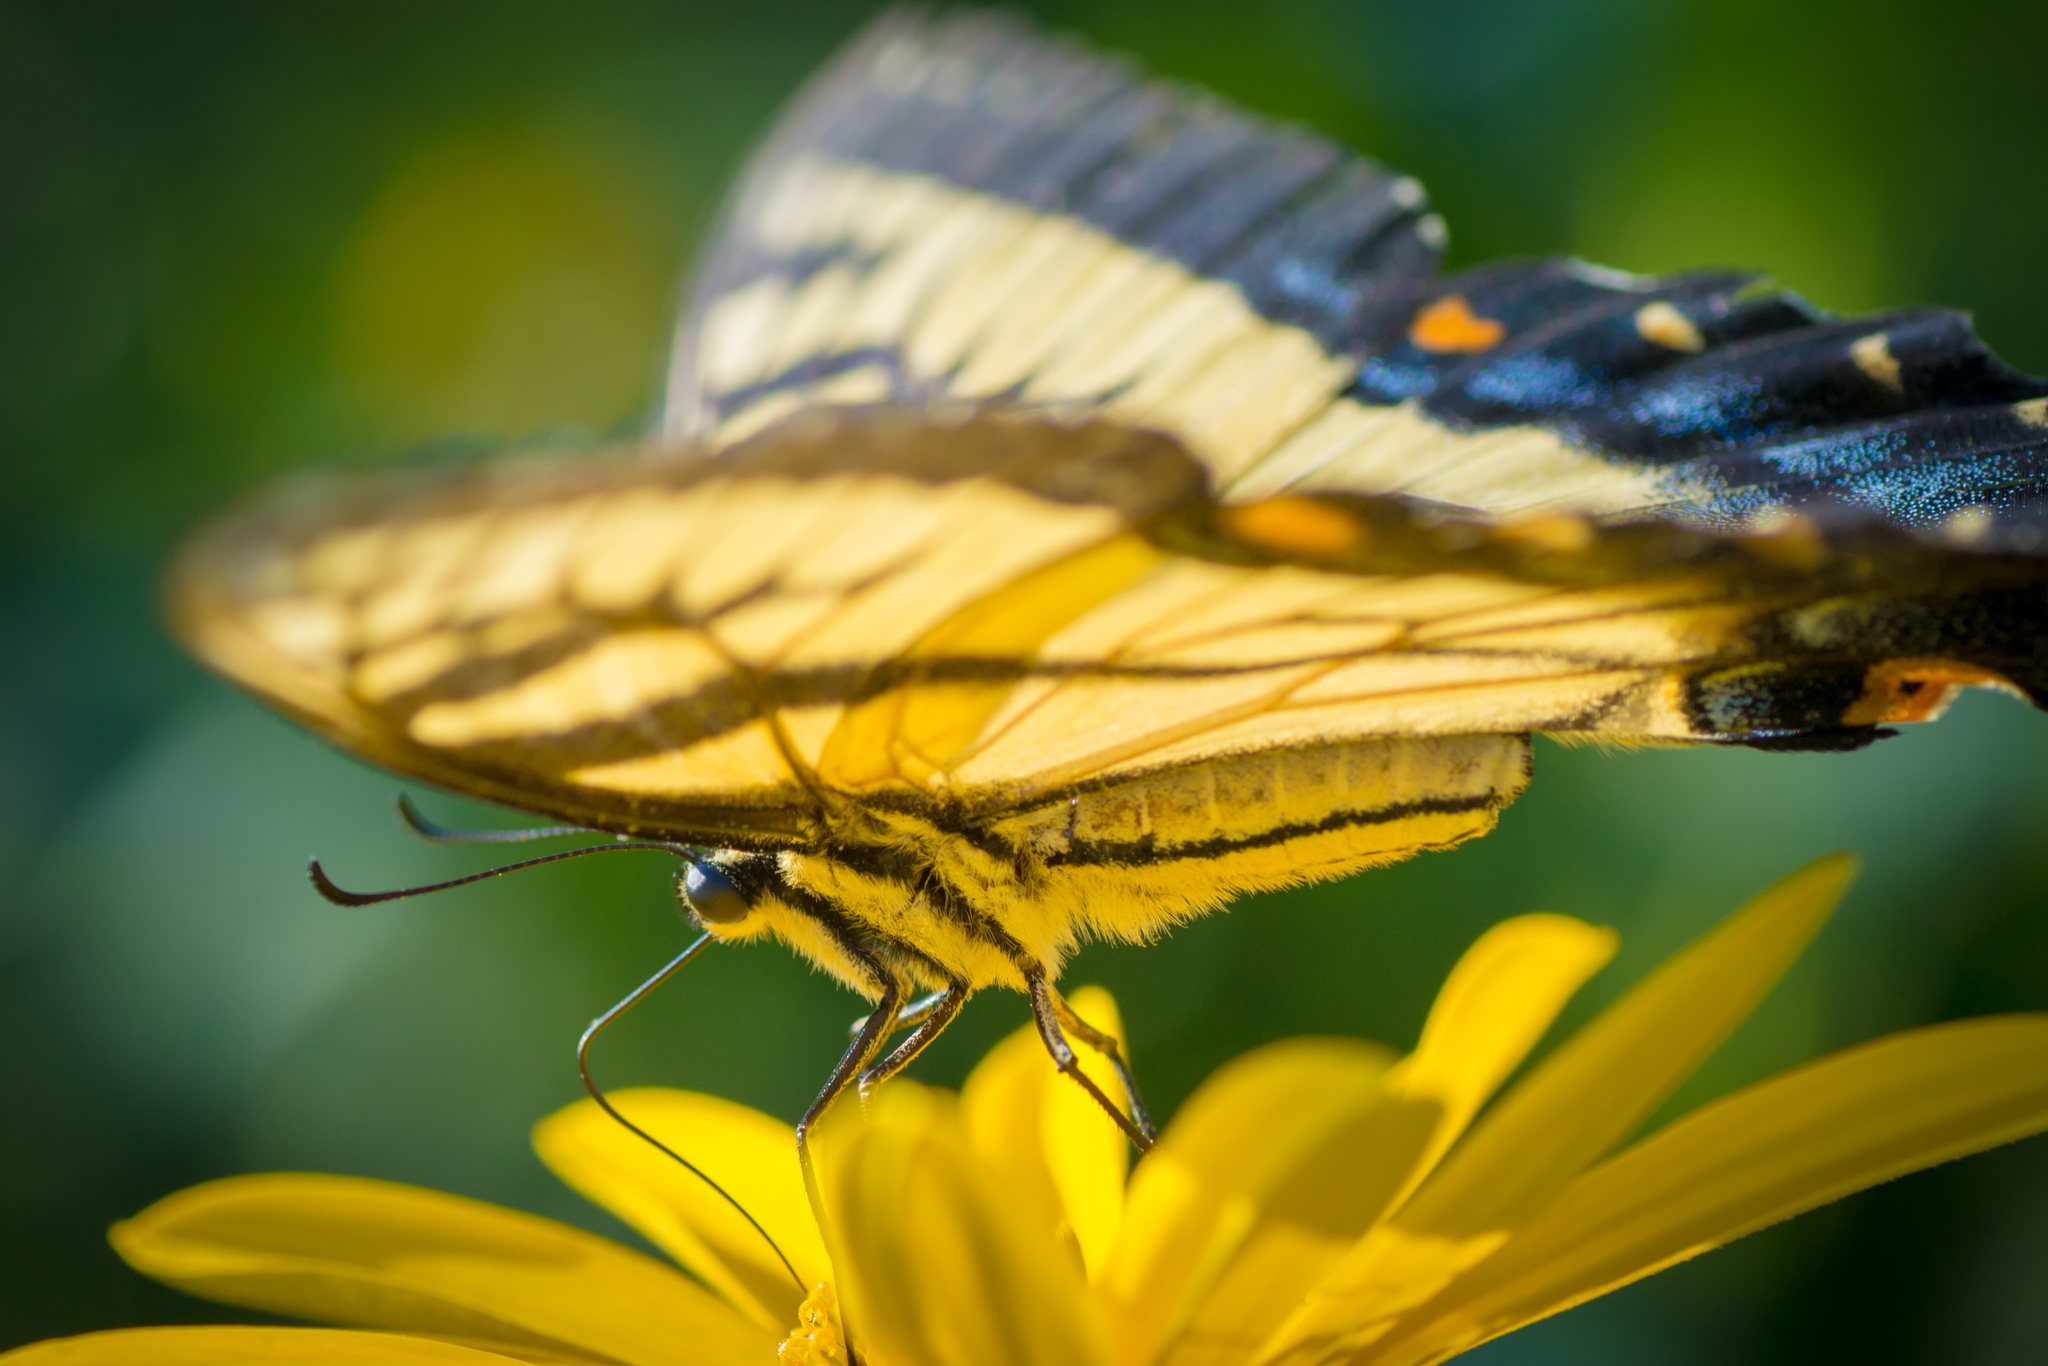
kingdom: Animalia
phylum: Arthropoda
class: Insecta
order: Lepidoptera
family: Papilionidae
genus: Papilio
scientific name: Papilio glaucus
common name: Tiger swallowtail
